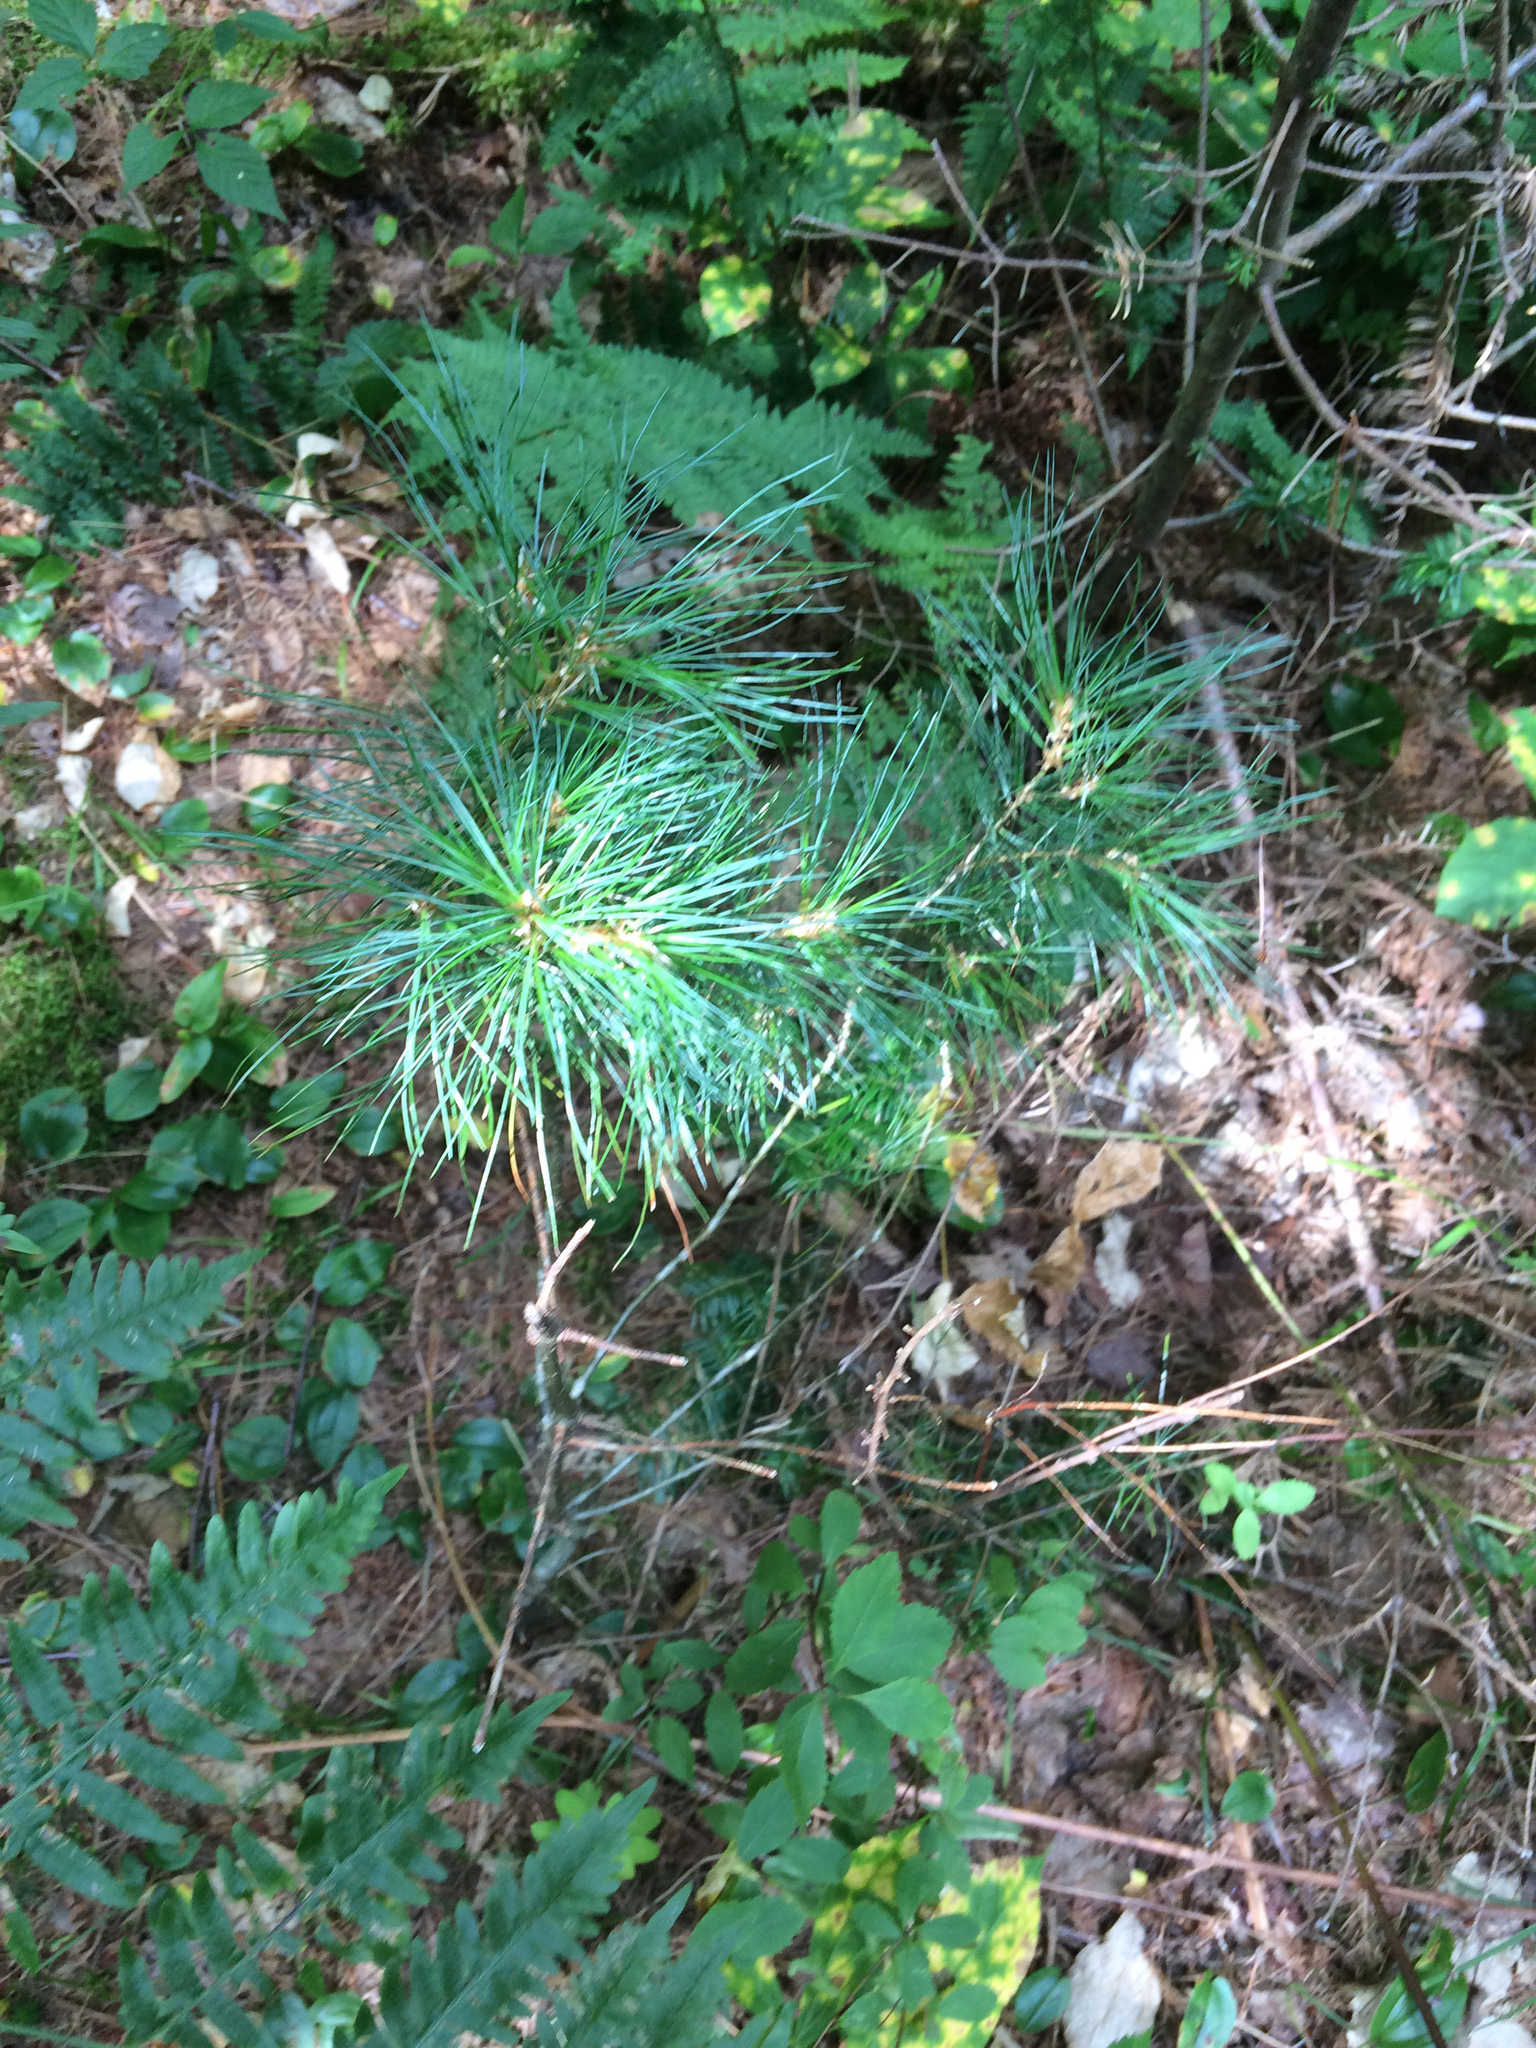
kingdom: Plantae
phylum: Tracheophyta
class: Pinopsida
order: Pinales
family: Pinaceae
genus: Pinus
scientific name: Pinus strobus
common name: Weymouth pine
